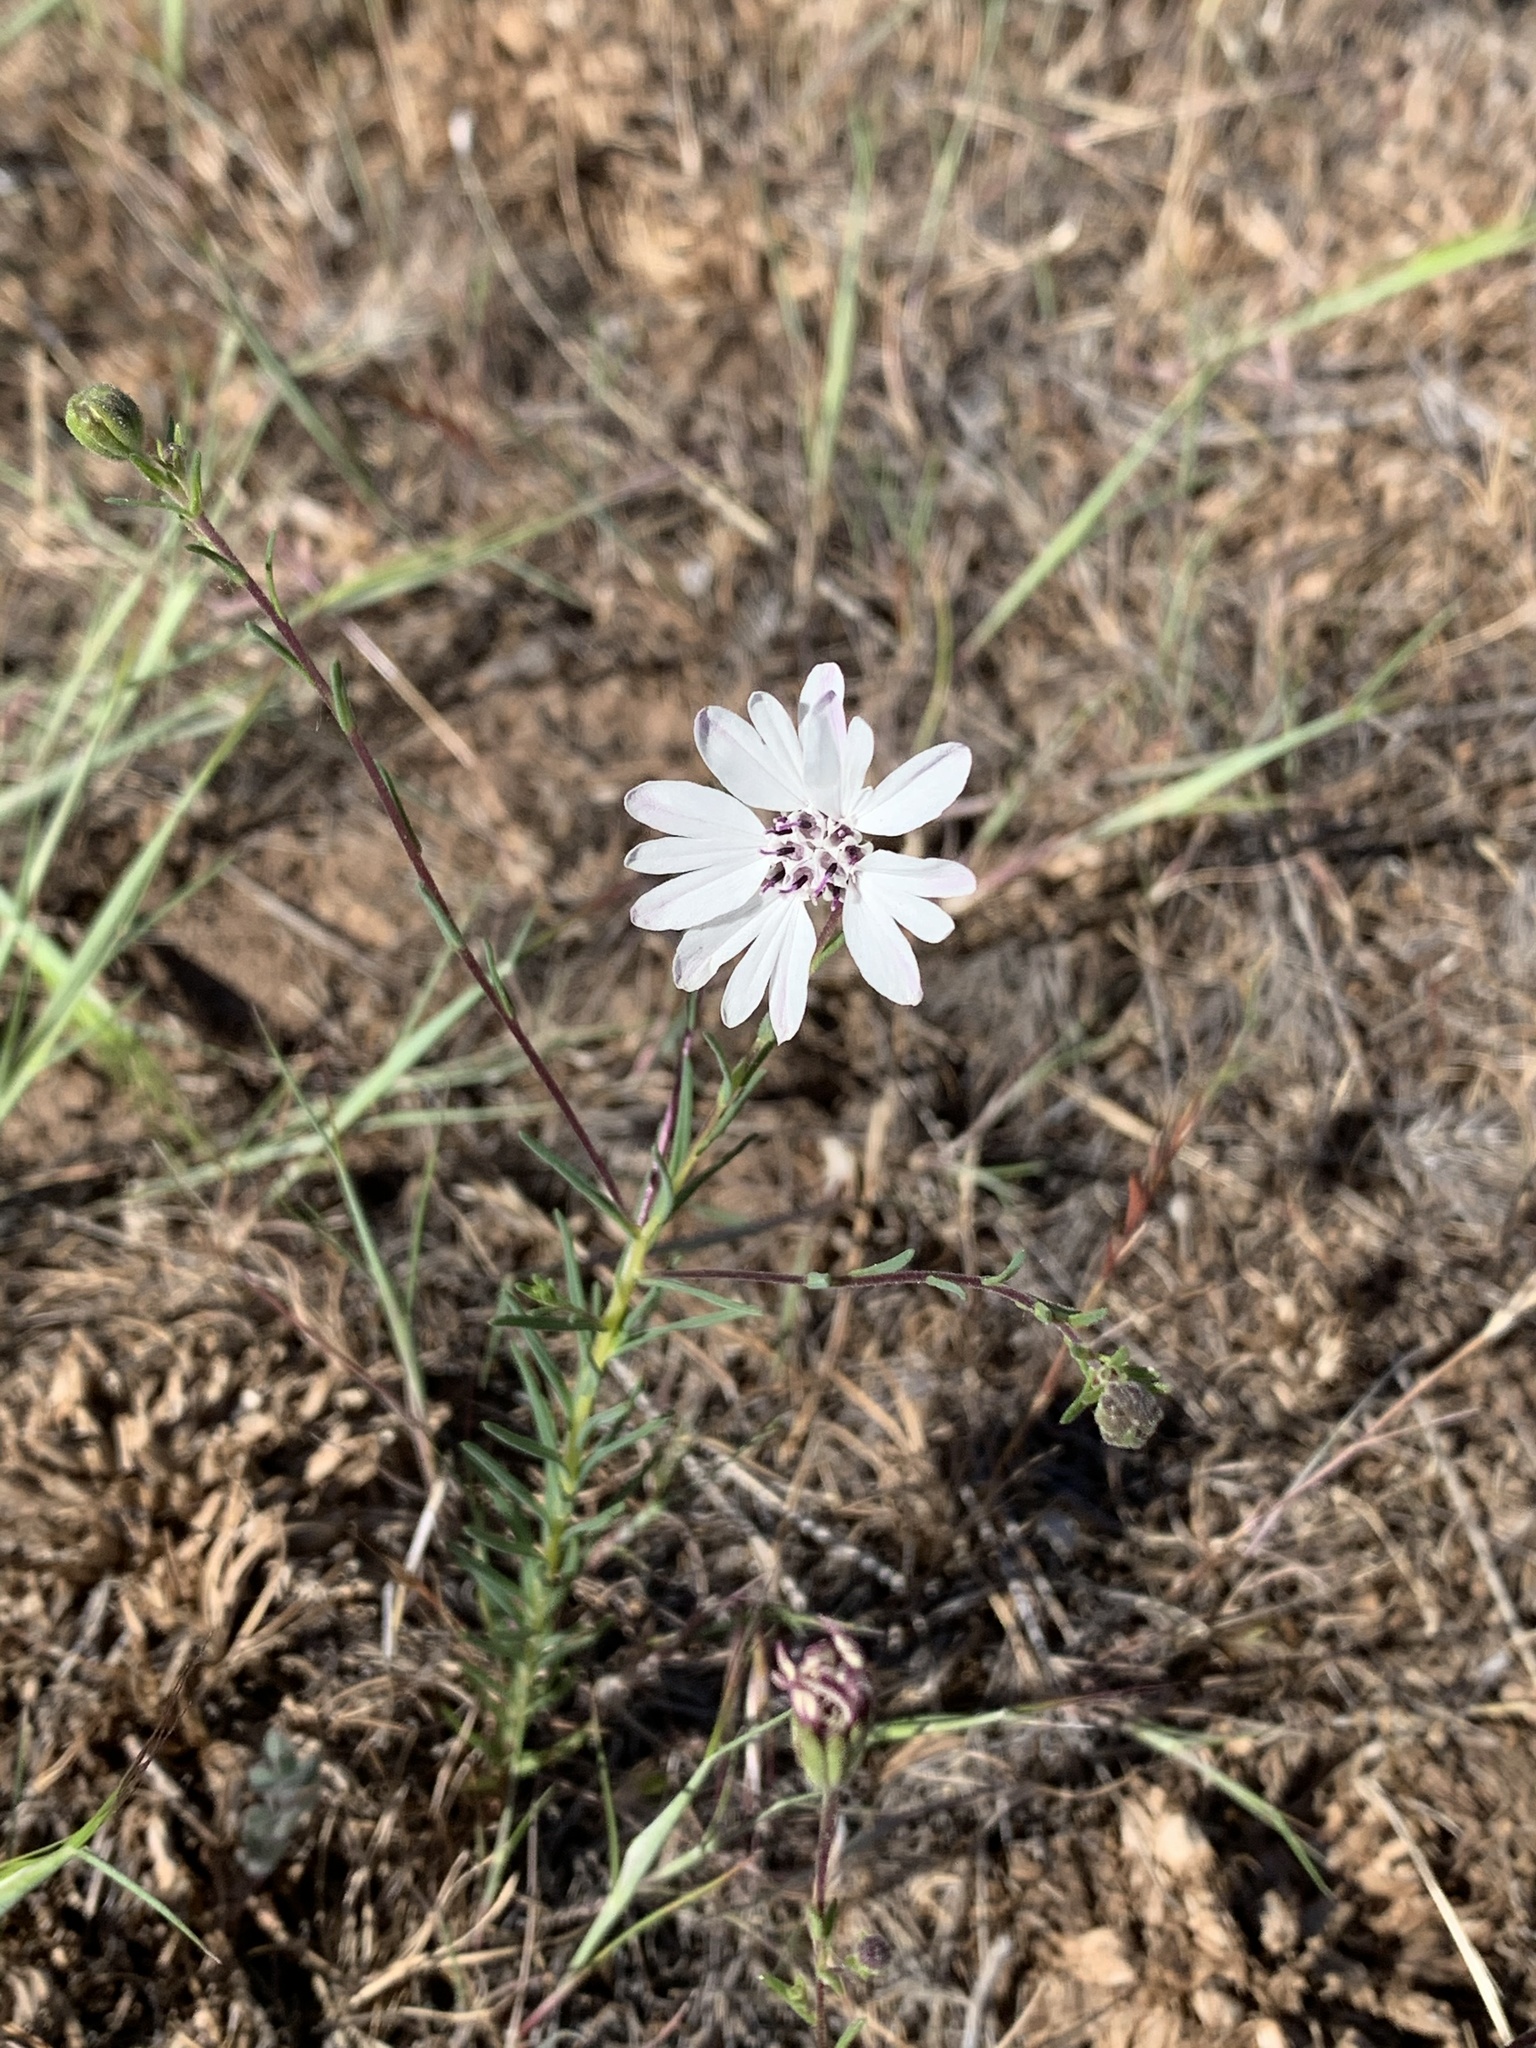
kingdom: Plantae
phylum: Tracheophyta
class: Magnoliopsida
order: Asterales
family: Asteraceae
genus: Blepharipappus
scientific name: Blepharipappus scaber
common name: Rough blepharipappus
